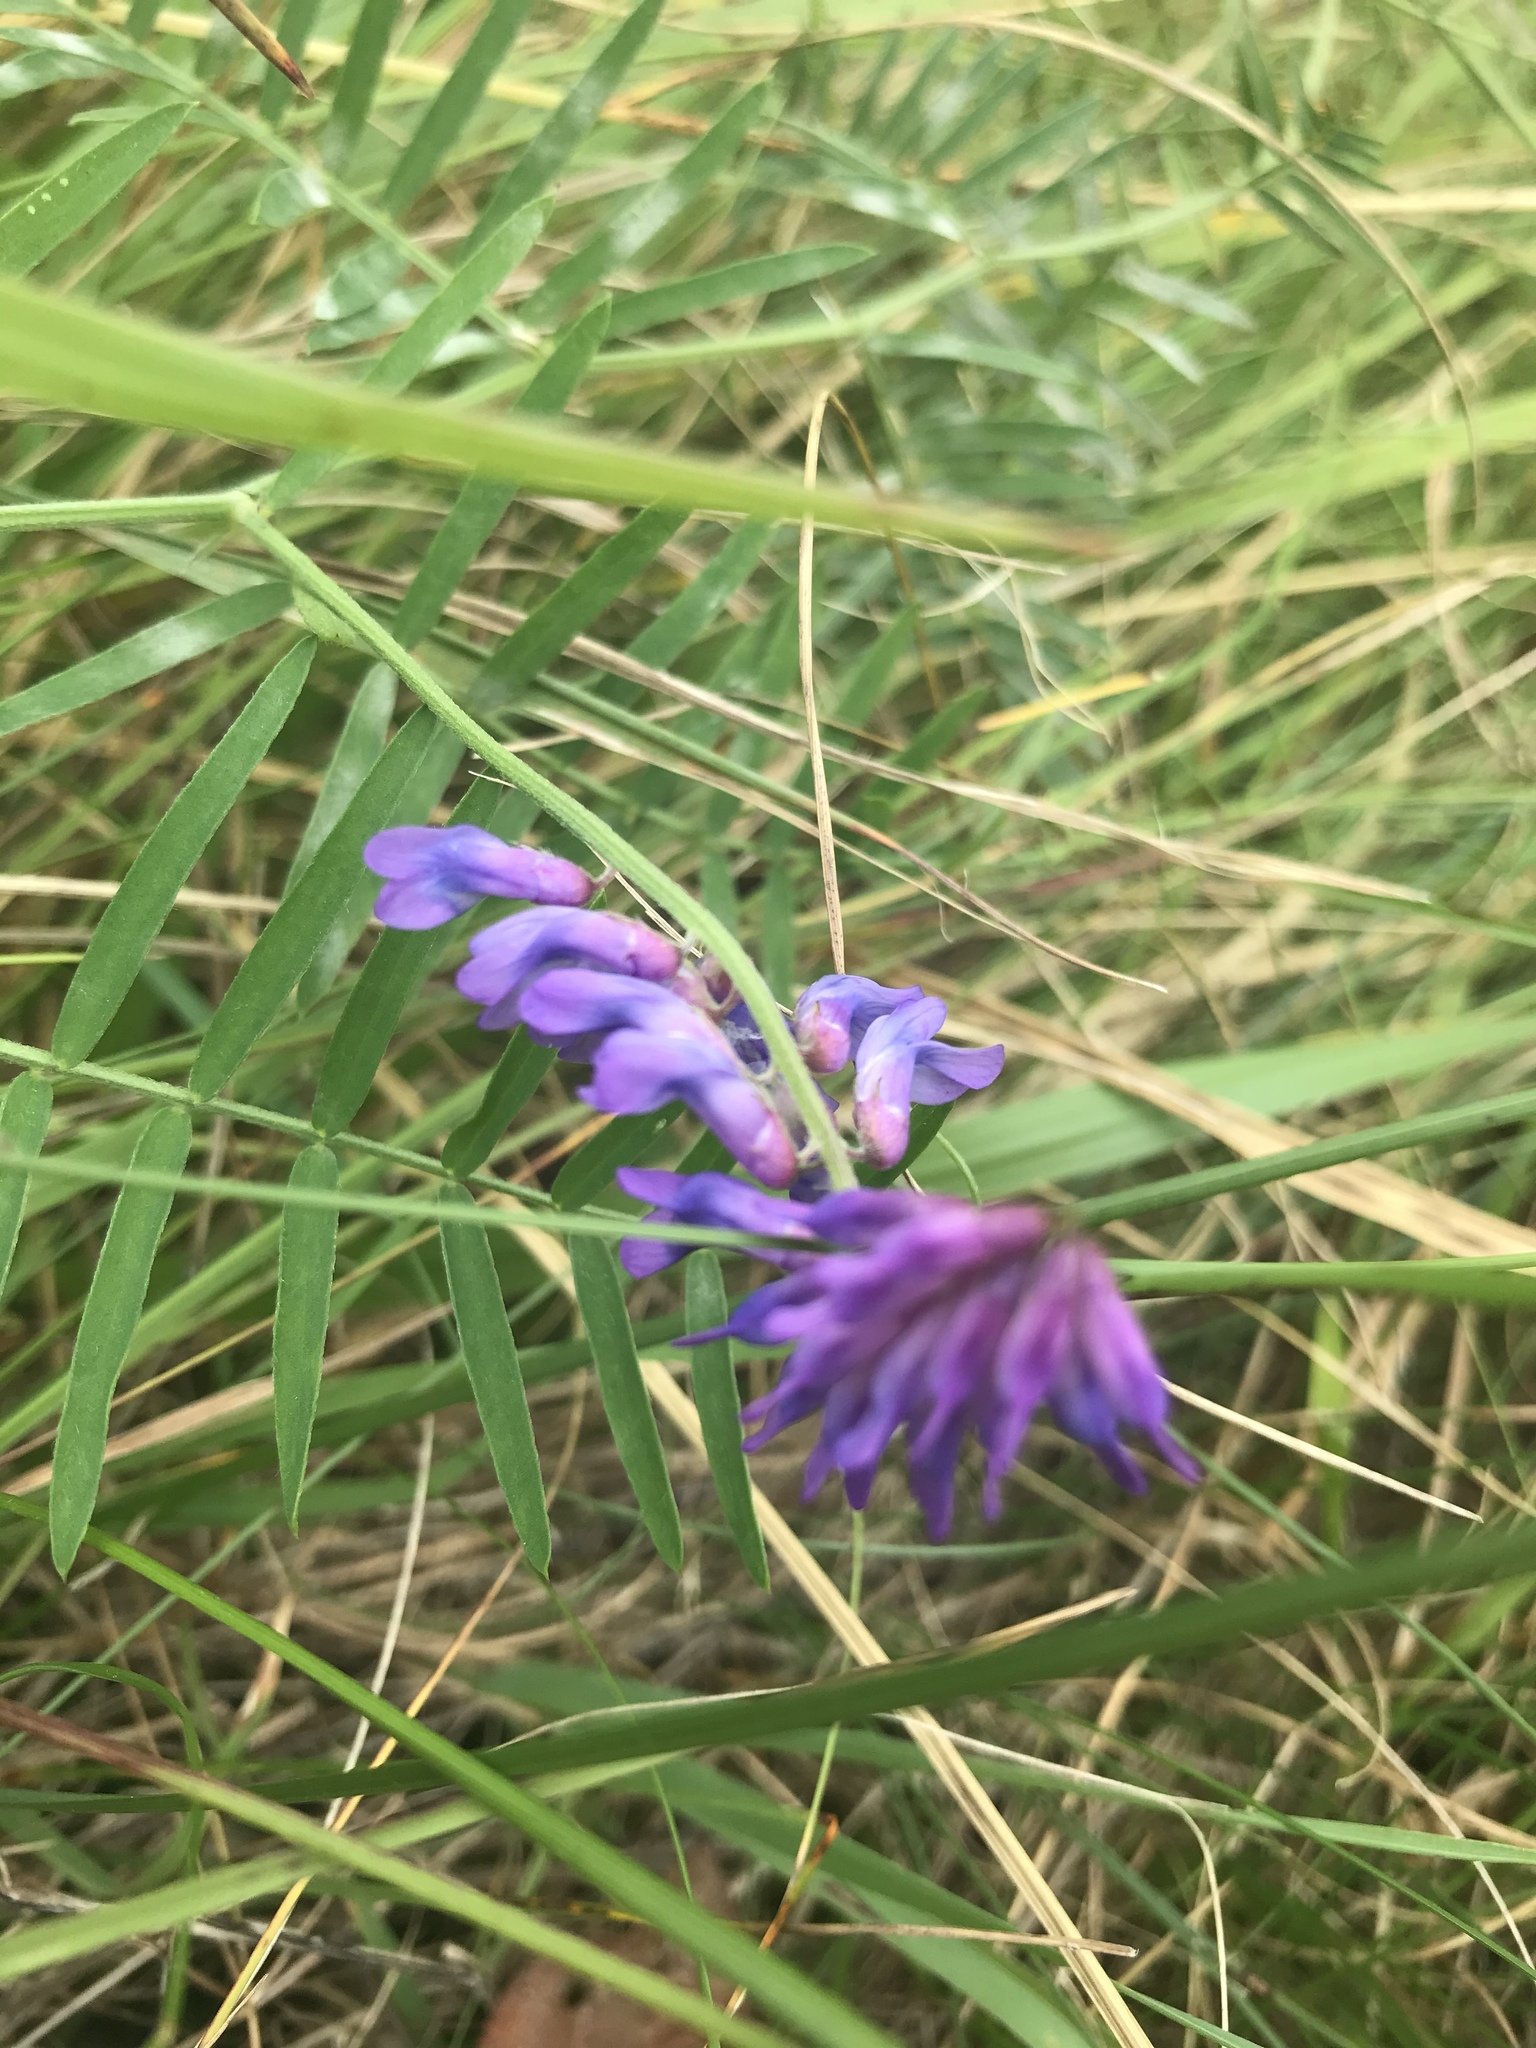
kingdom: Plantae
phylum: Tracheophyta
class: Magnoliopsida
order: Fabales
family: Fabaceae
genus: Vicia
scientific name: Vicia cracca
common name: Bird vetch
